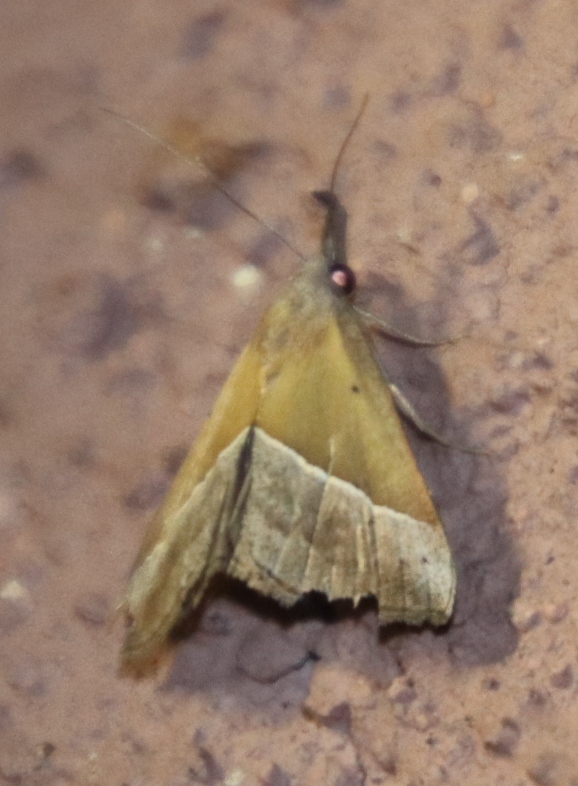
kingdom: Animalia
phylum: Arthropoda
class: Insecta
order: Lepidoptera
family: Erebidae
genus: Hypena
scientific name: Hypena laetalis
